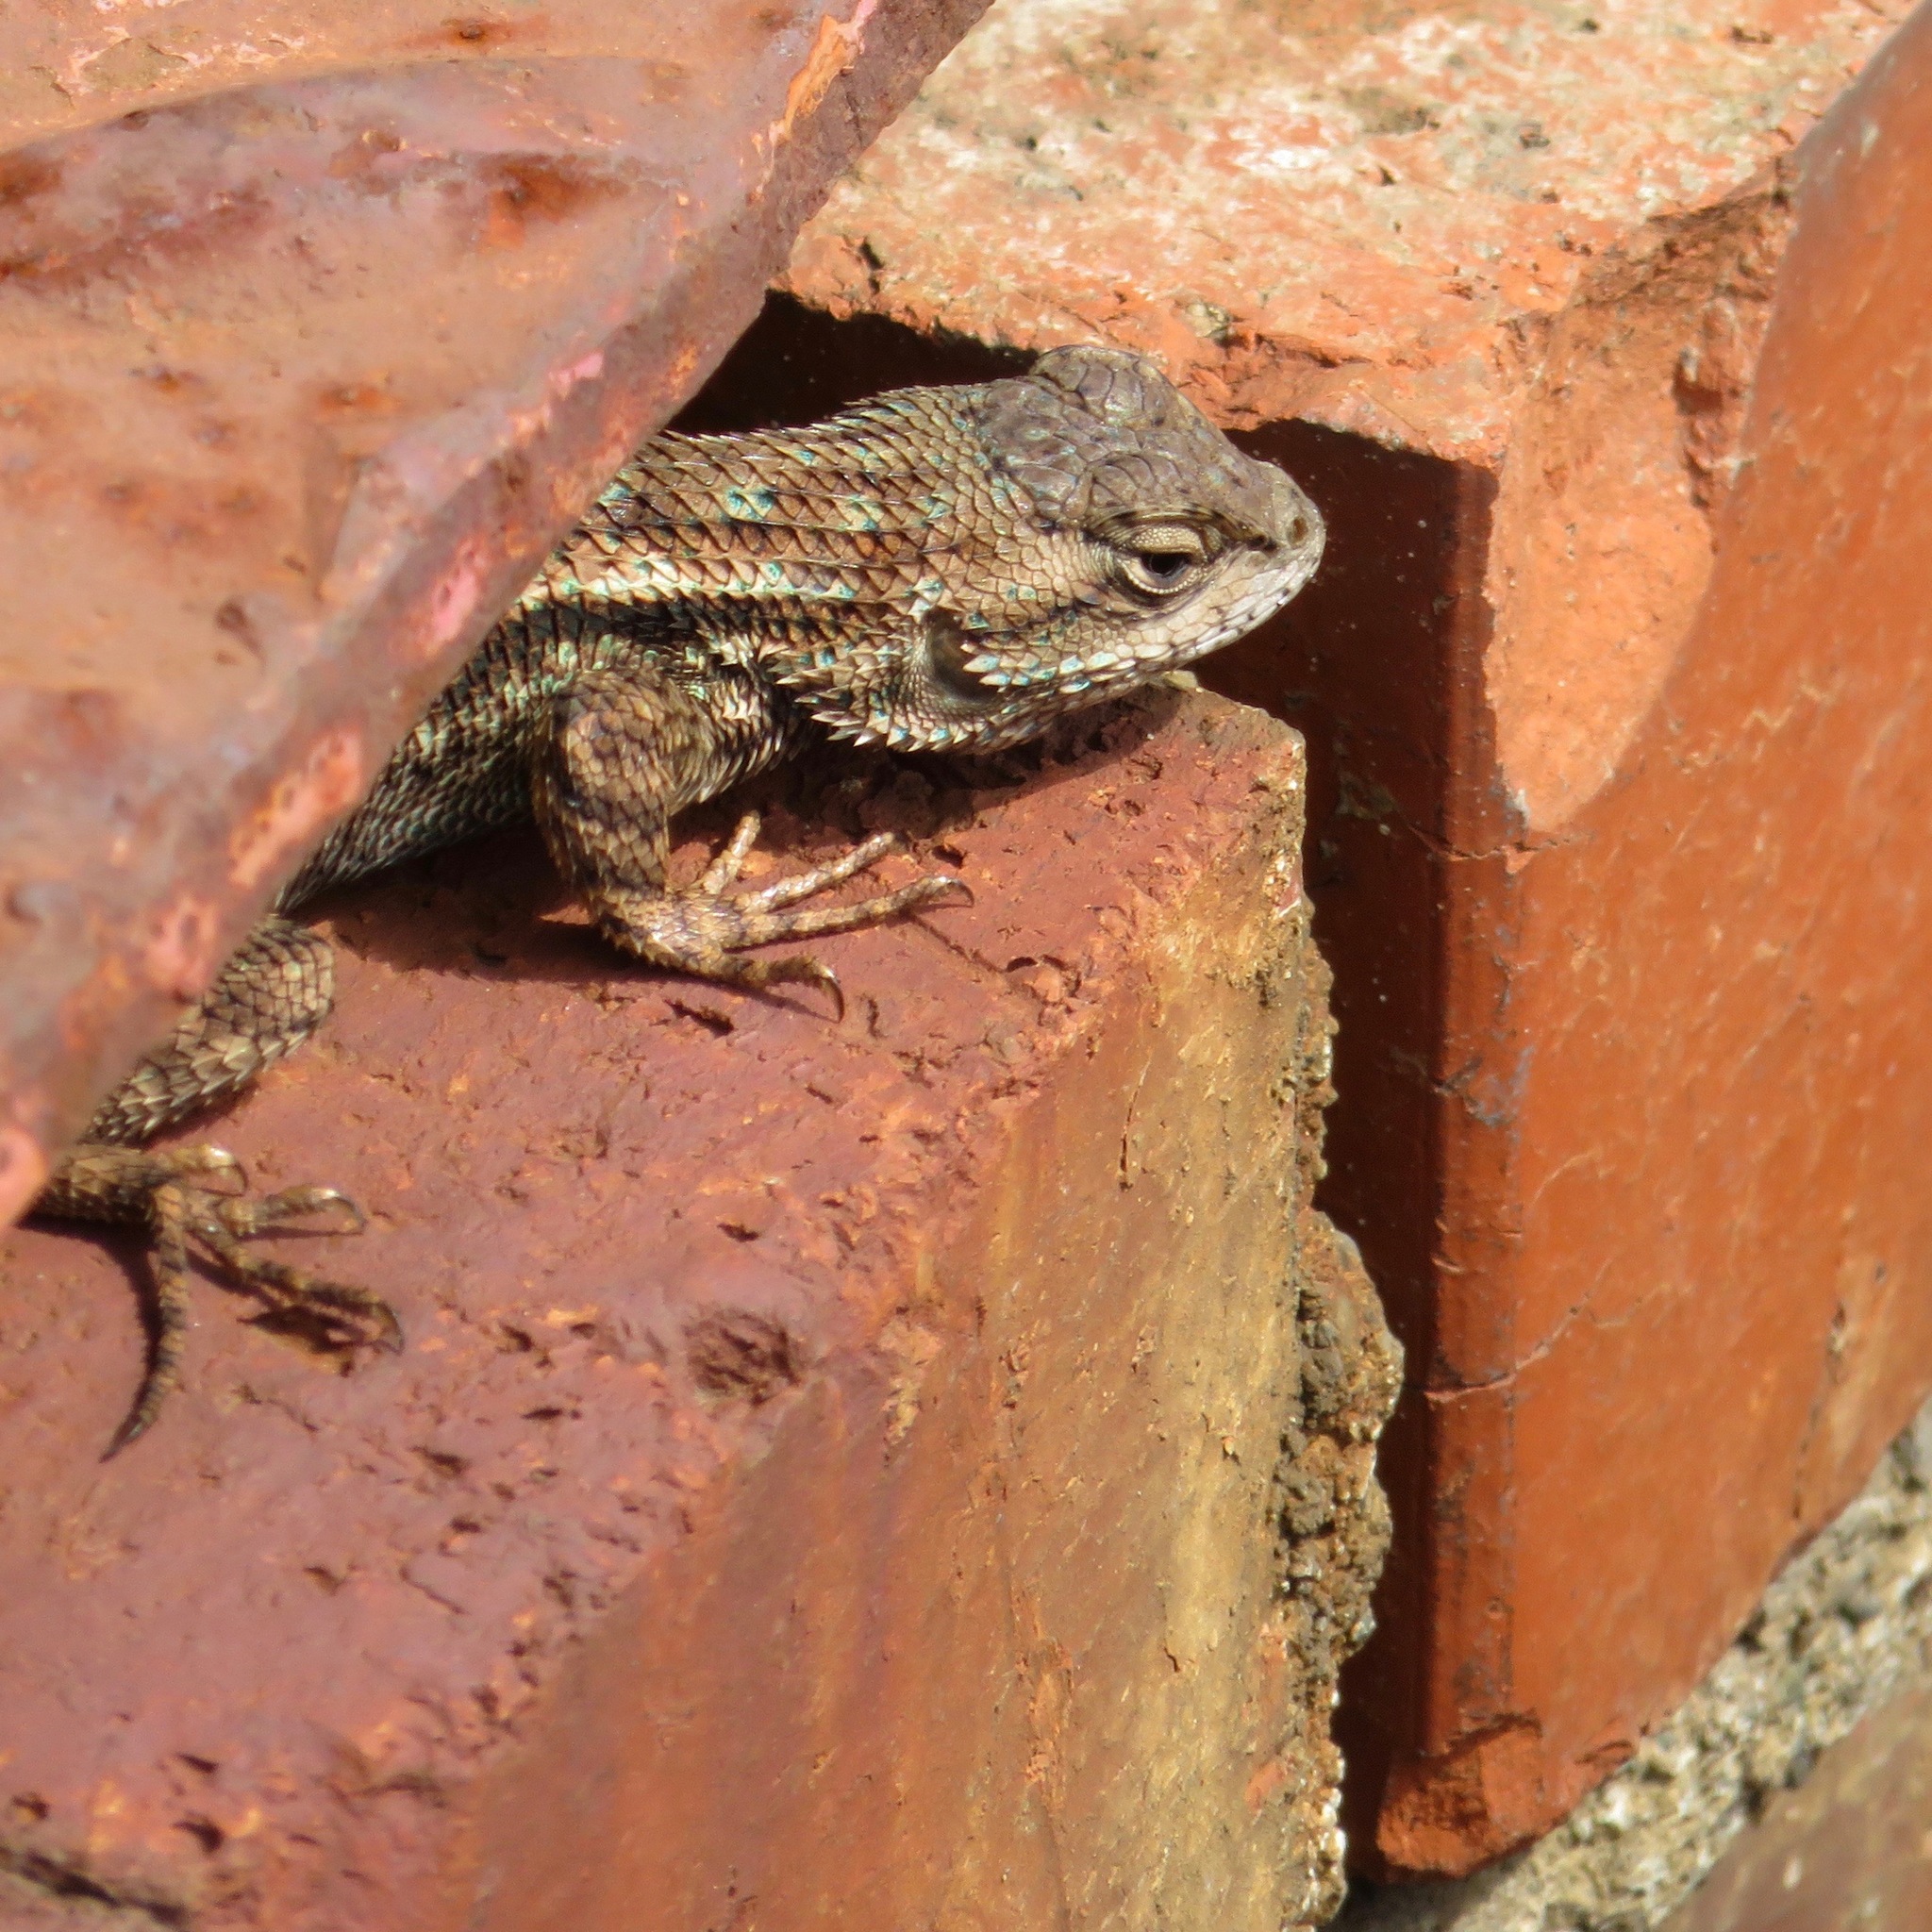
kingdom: Animalia
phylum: Chordata
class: Squamata
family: Phrynosomatidae
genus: Sceloporus
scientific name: Sceloporus occidentalis
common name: Western fence lizard
